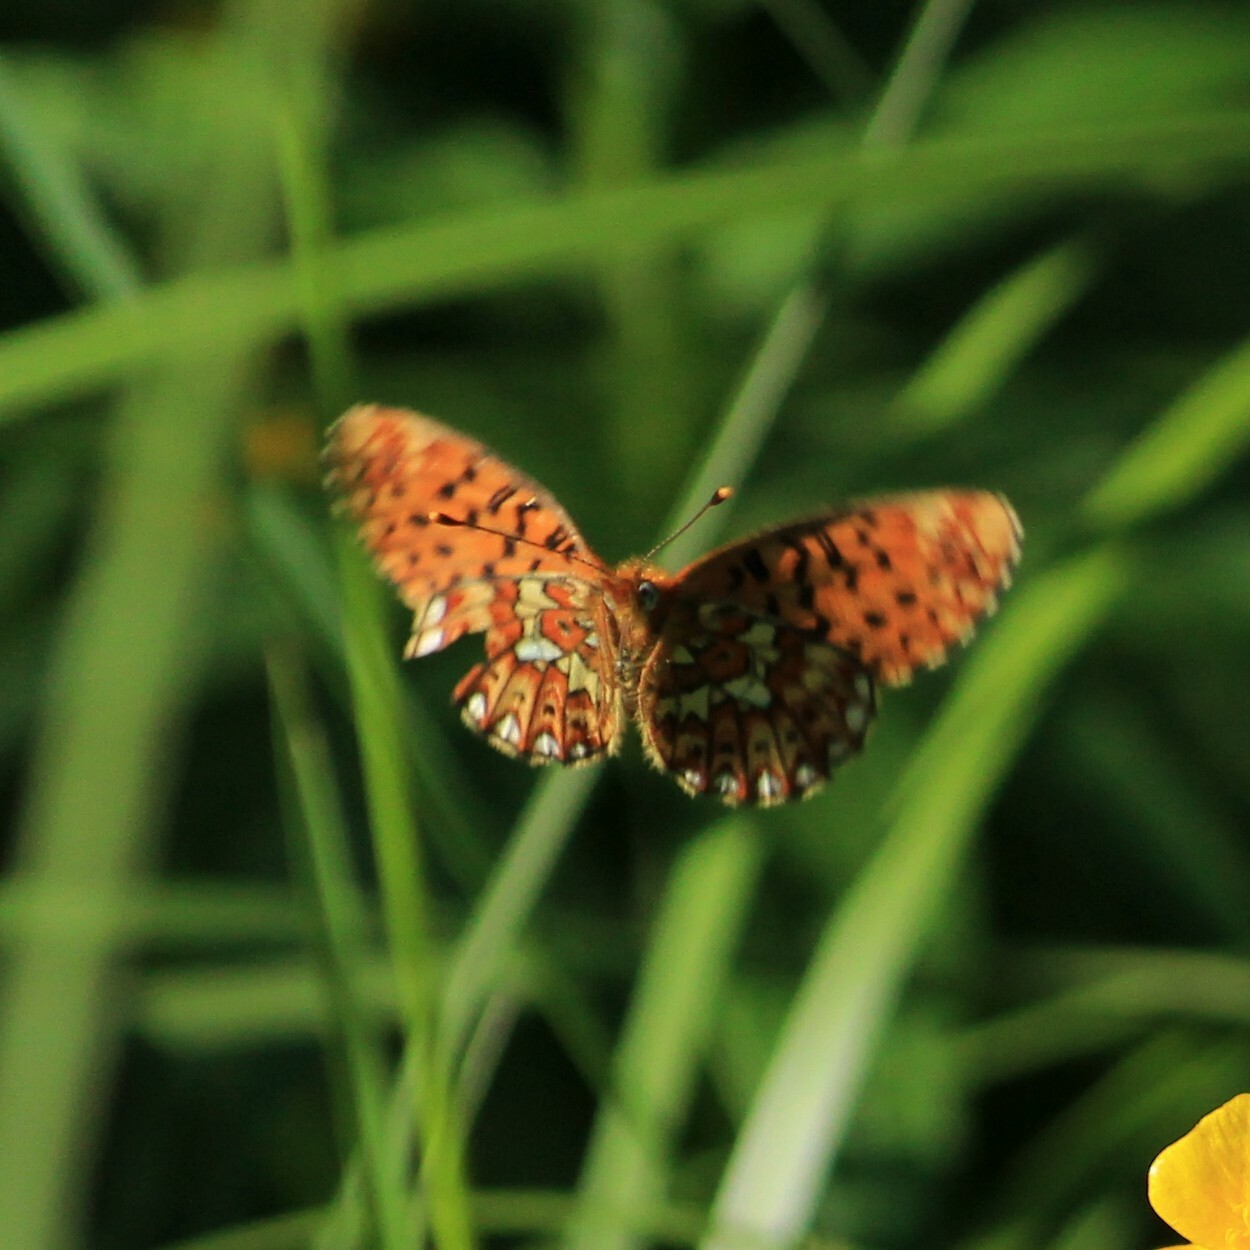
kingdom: Animalia
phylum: Arthropoda
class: Insecta
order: Lepidoptera
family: Nymphalidae
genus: Clossiana
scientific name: Clossiana euphrosyne
